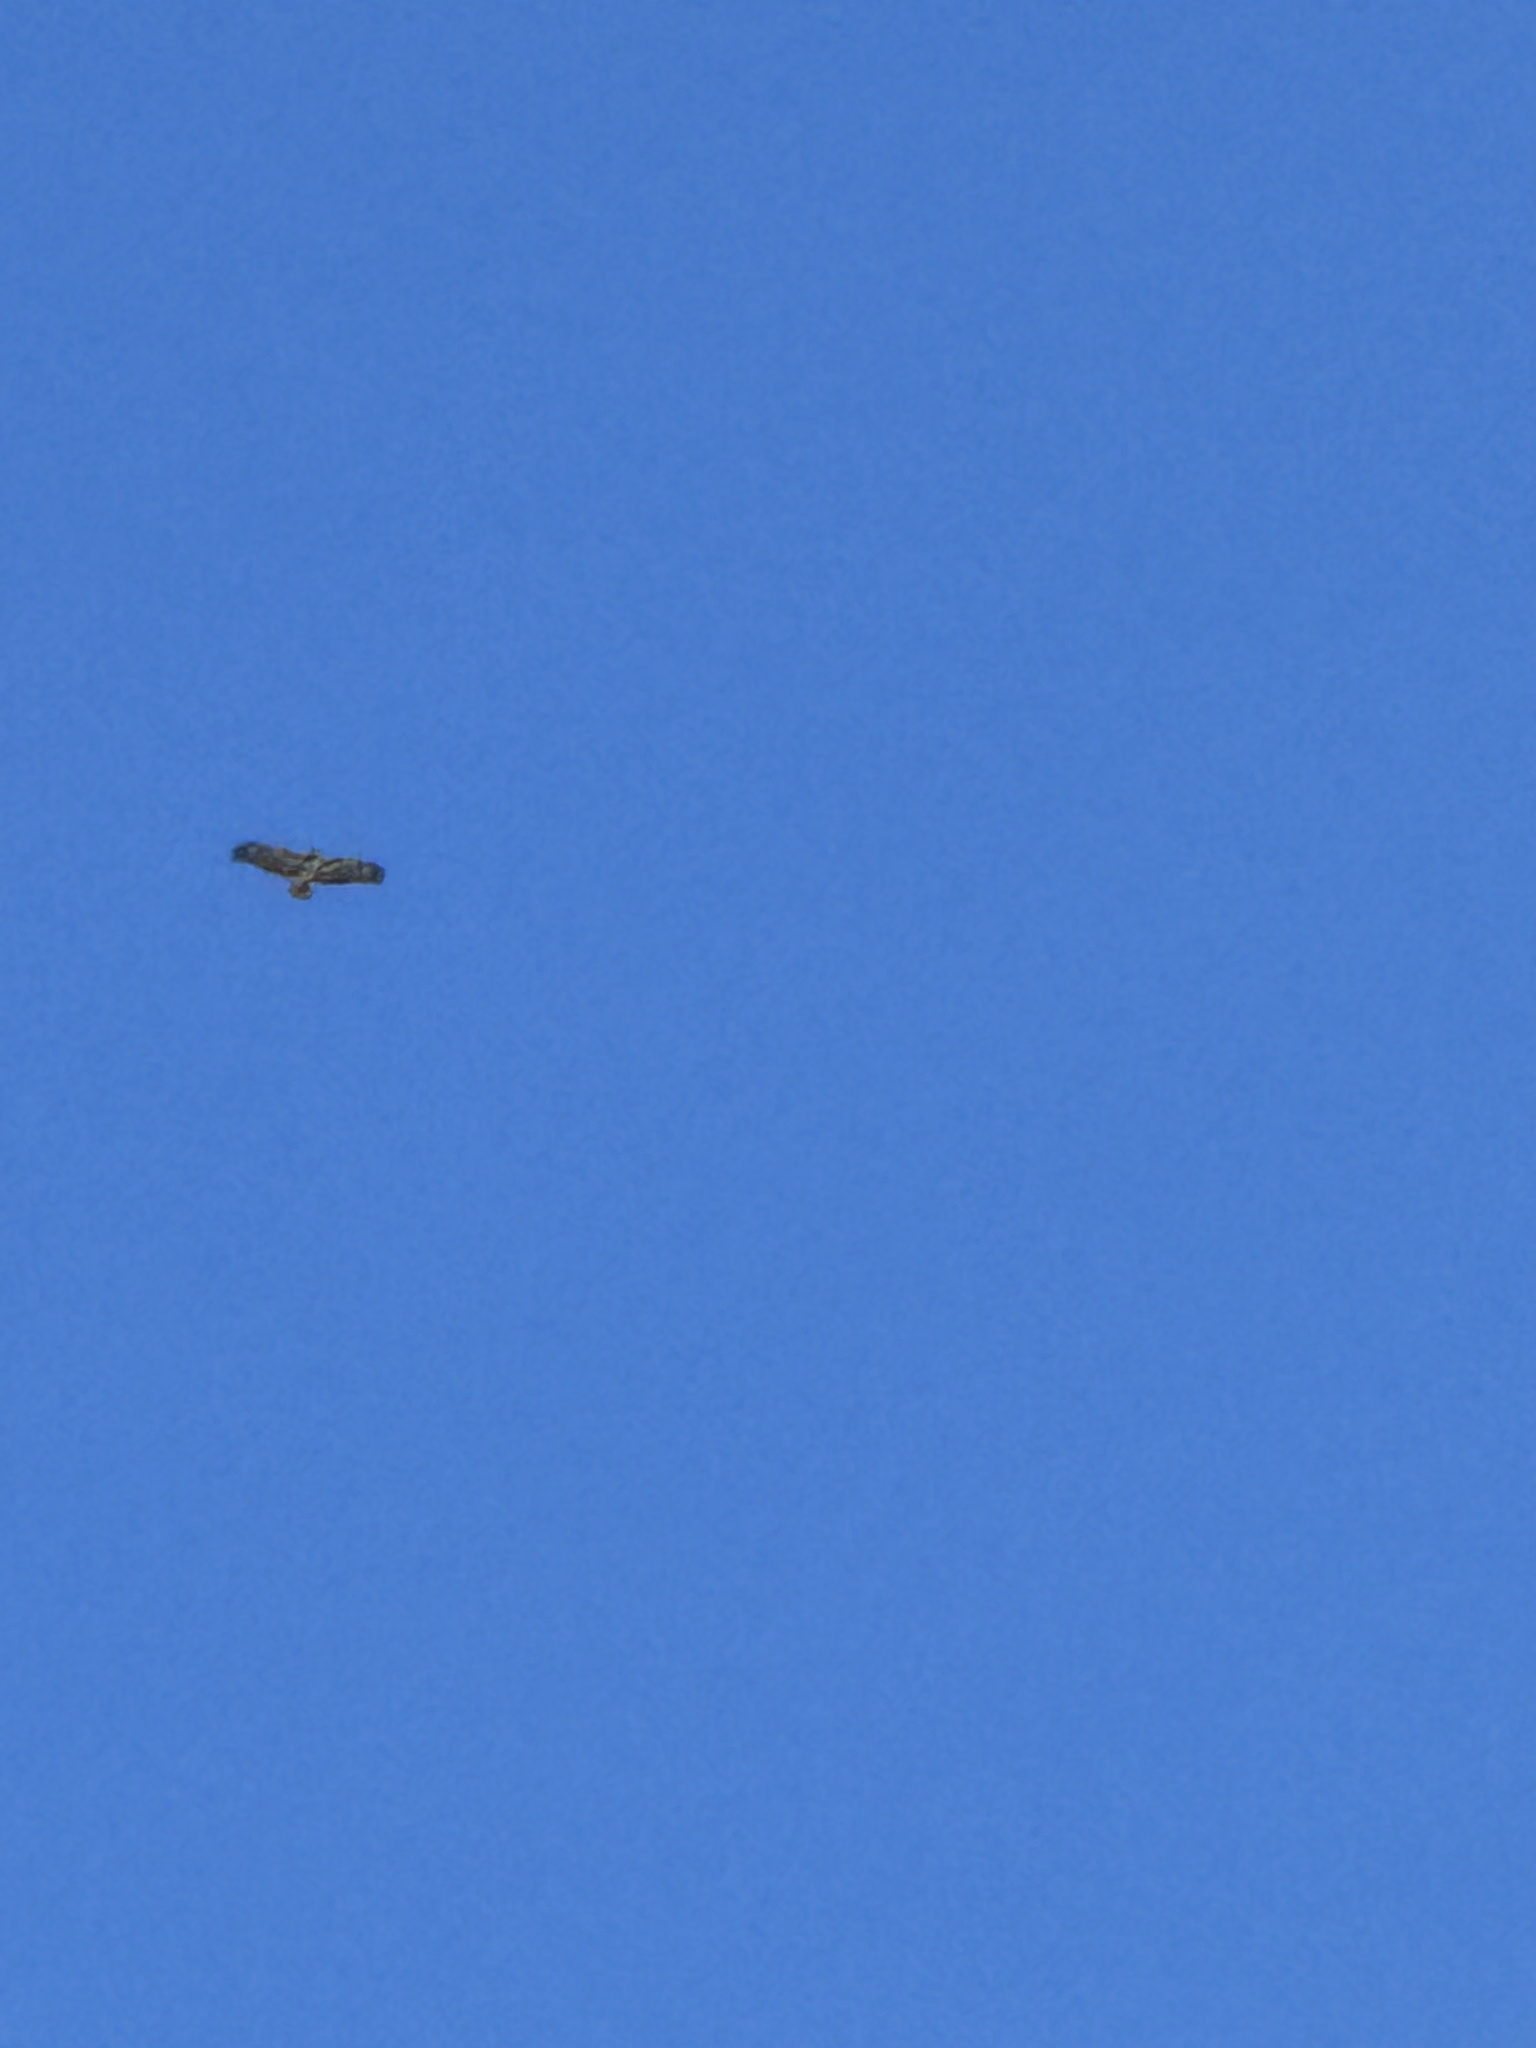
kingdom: Animalia
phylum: Chordata
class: Aves
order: Accipitriformes
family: Accipitridae
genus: Buteo
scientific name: Buteo jamaicensis
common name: Red-tailed hawk
